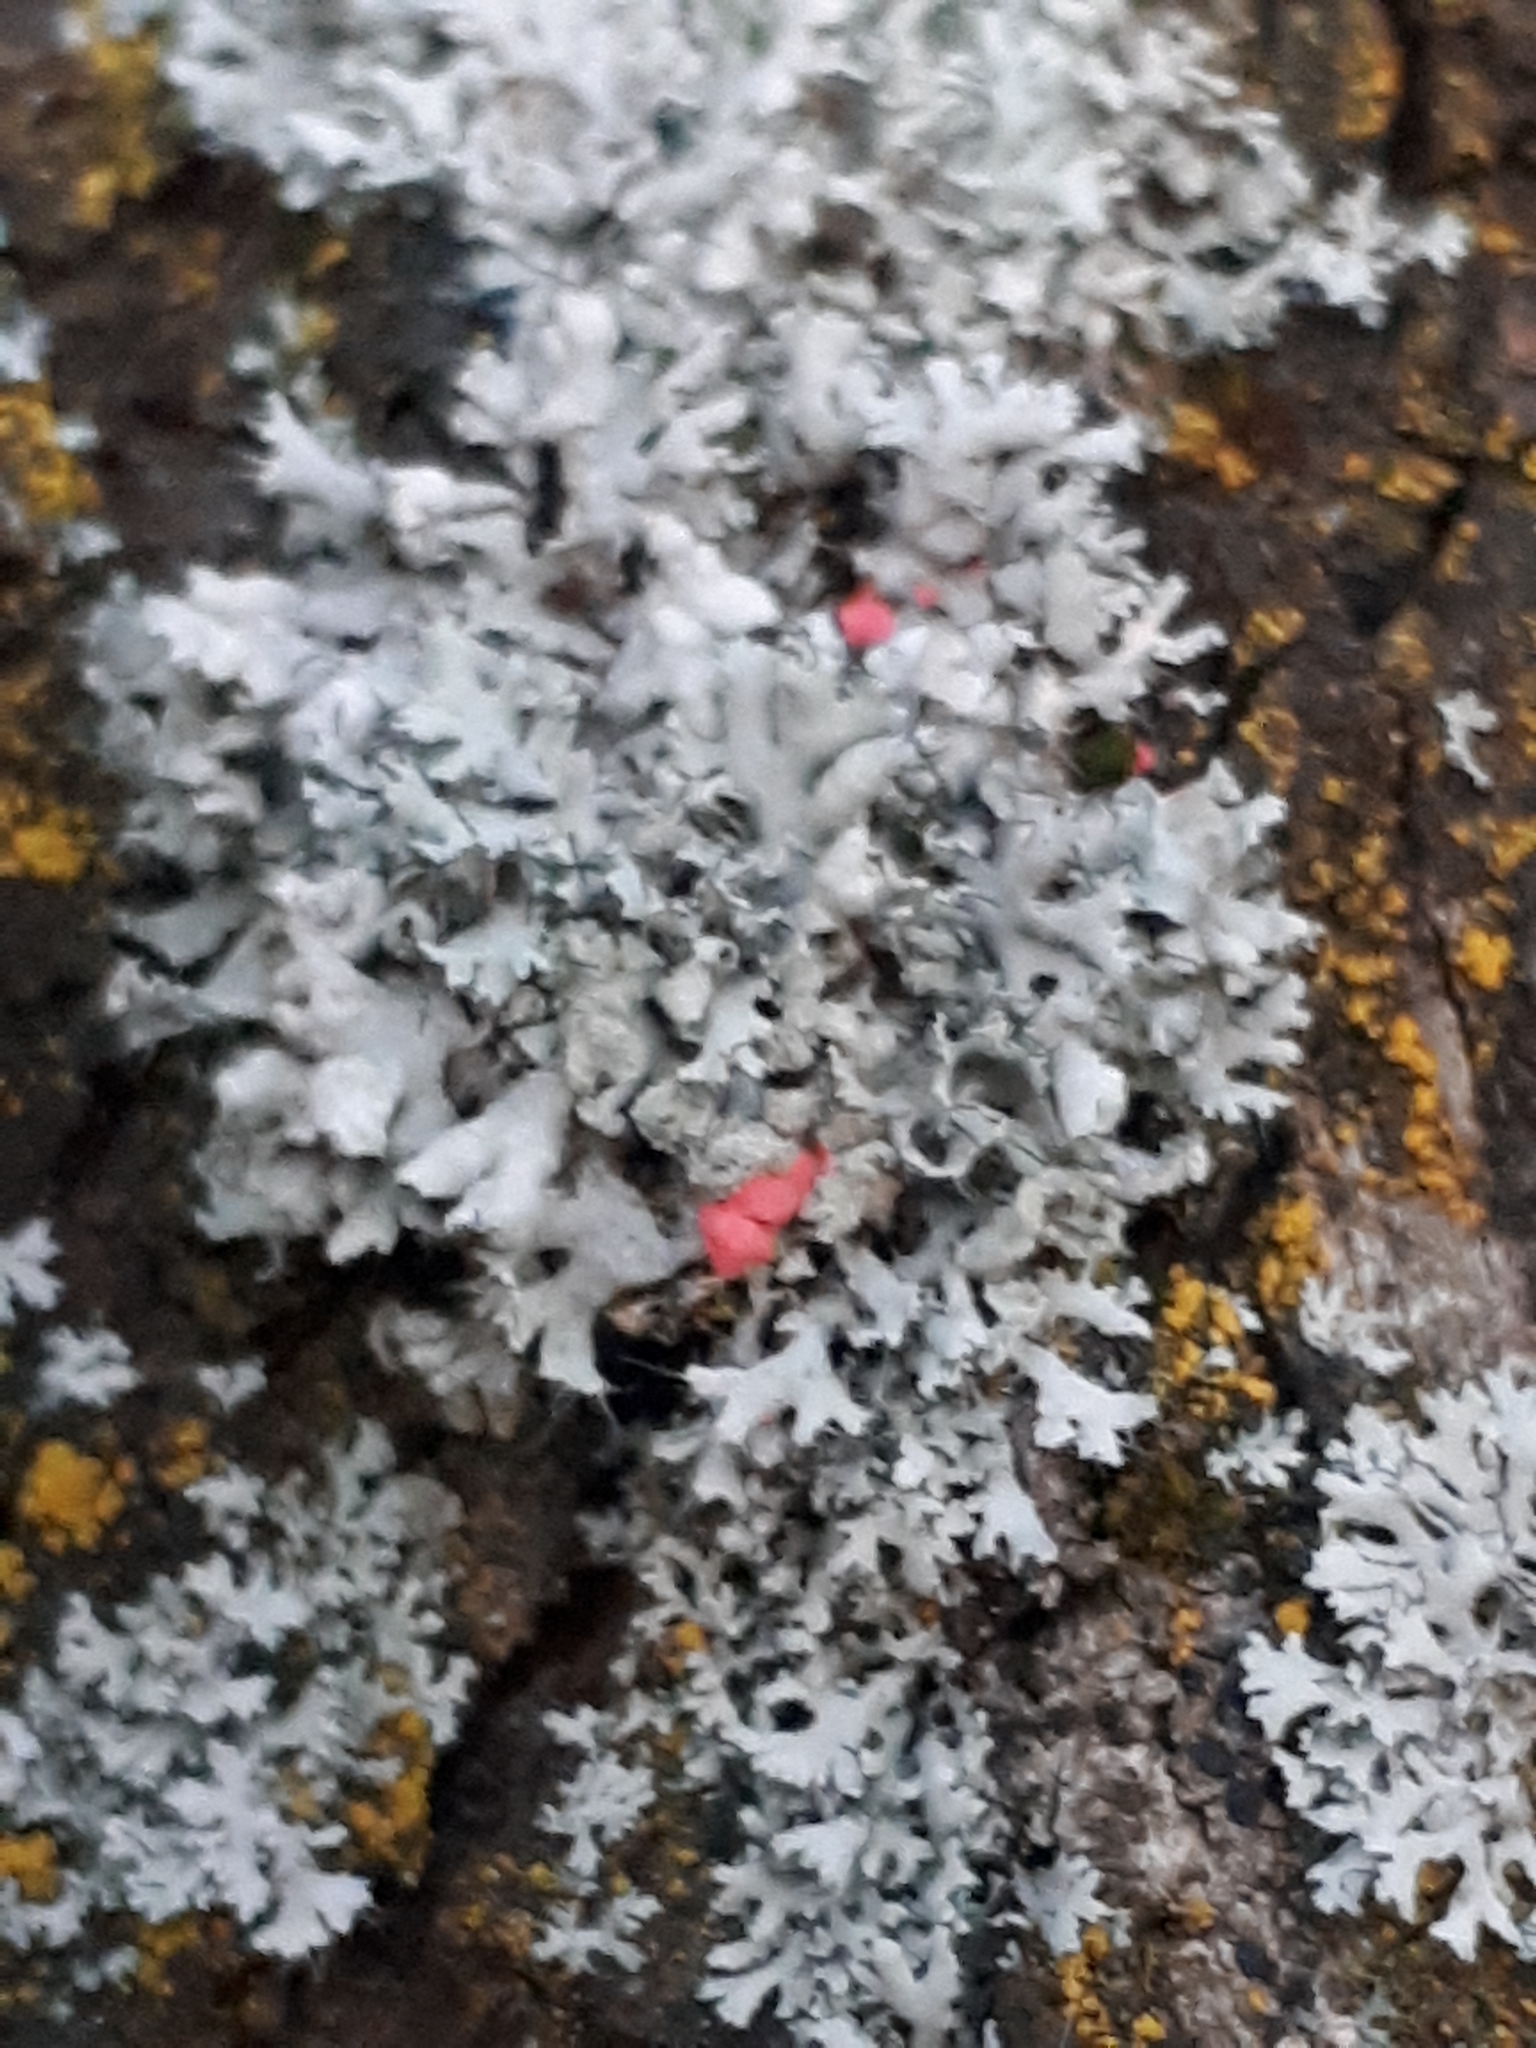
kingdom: Fungi
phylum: Ascomycota
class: Sordariomycetes
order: Hypocreales
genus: Illosporiopsis
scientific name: Illosporiopsis christiansenii
